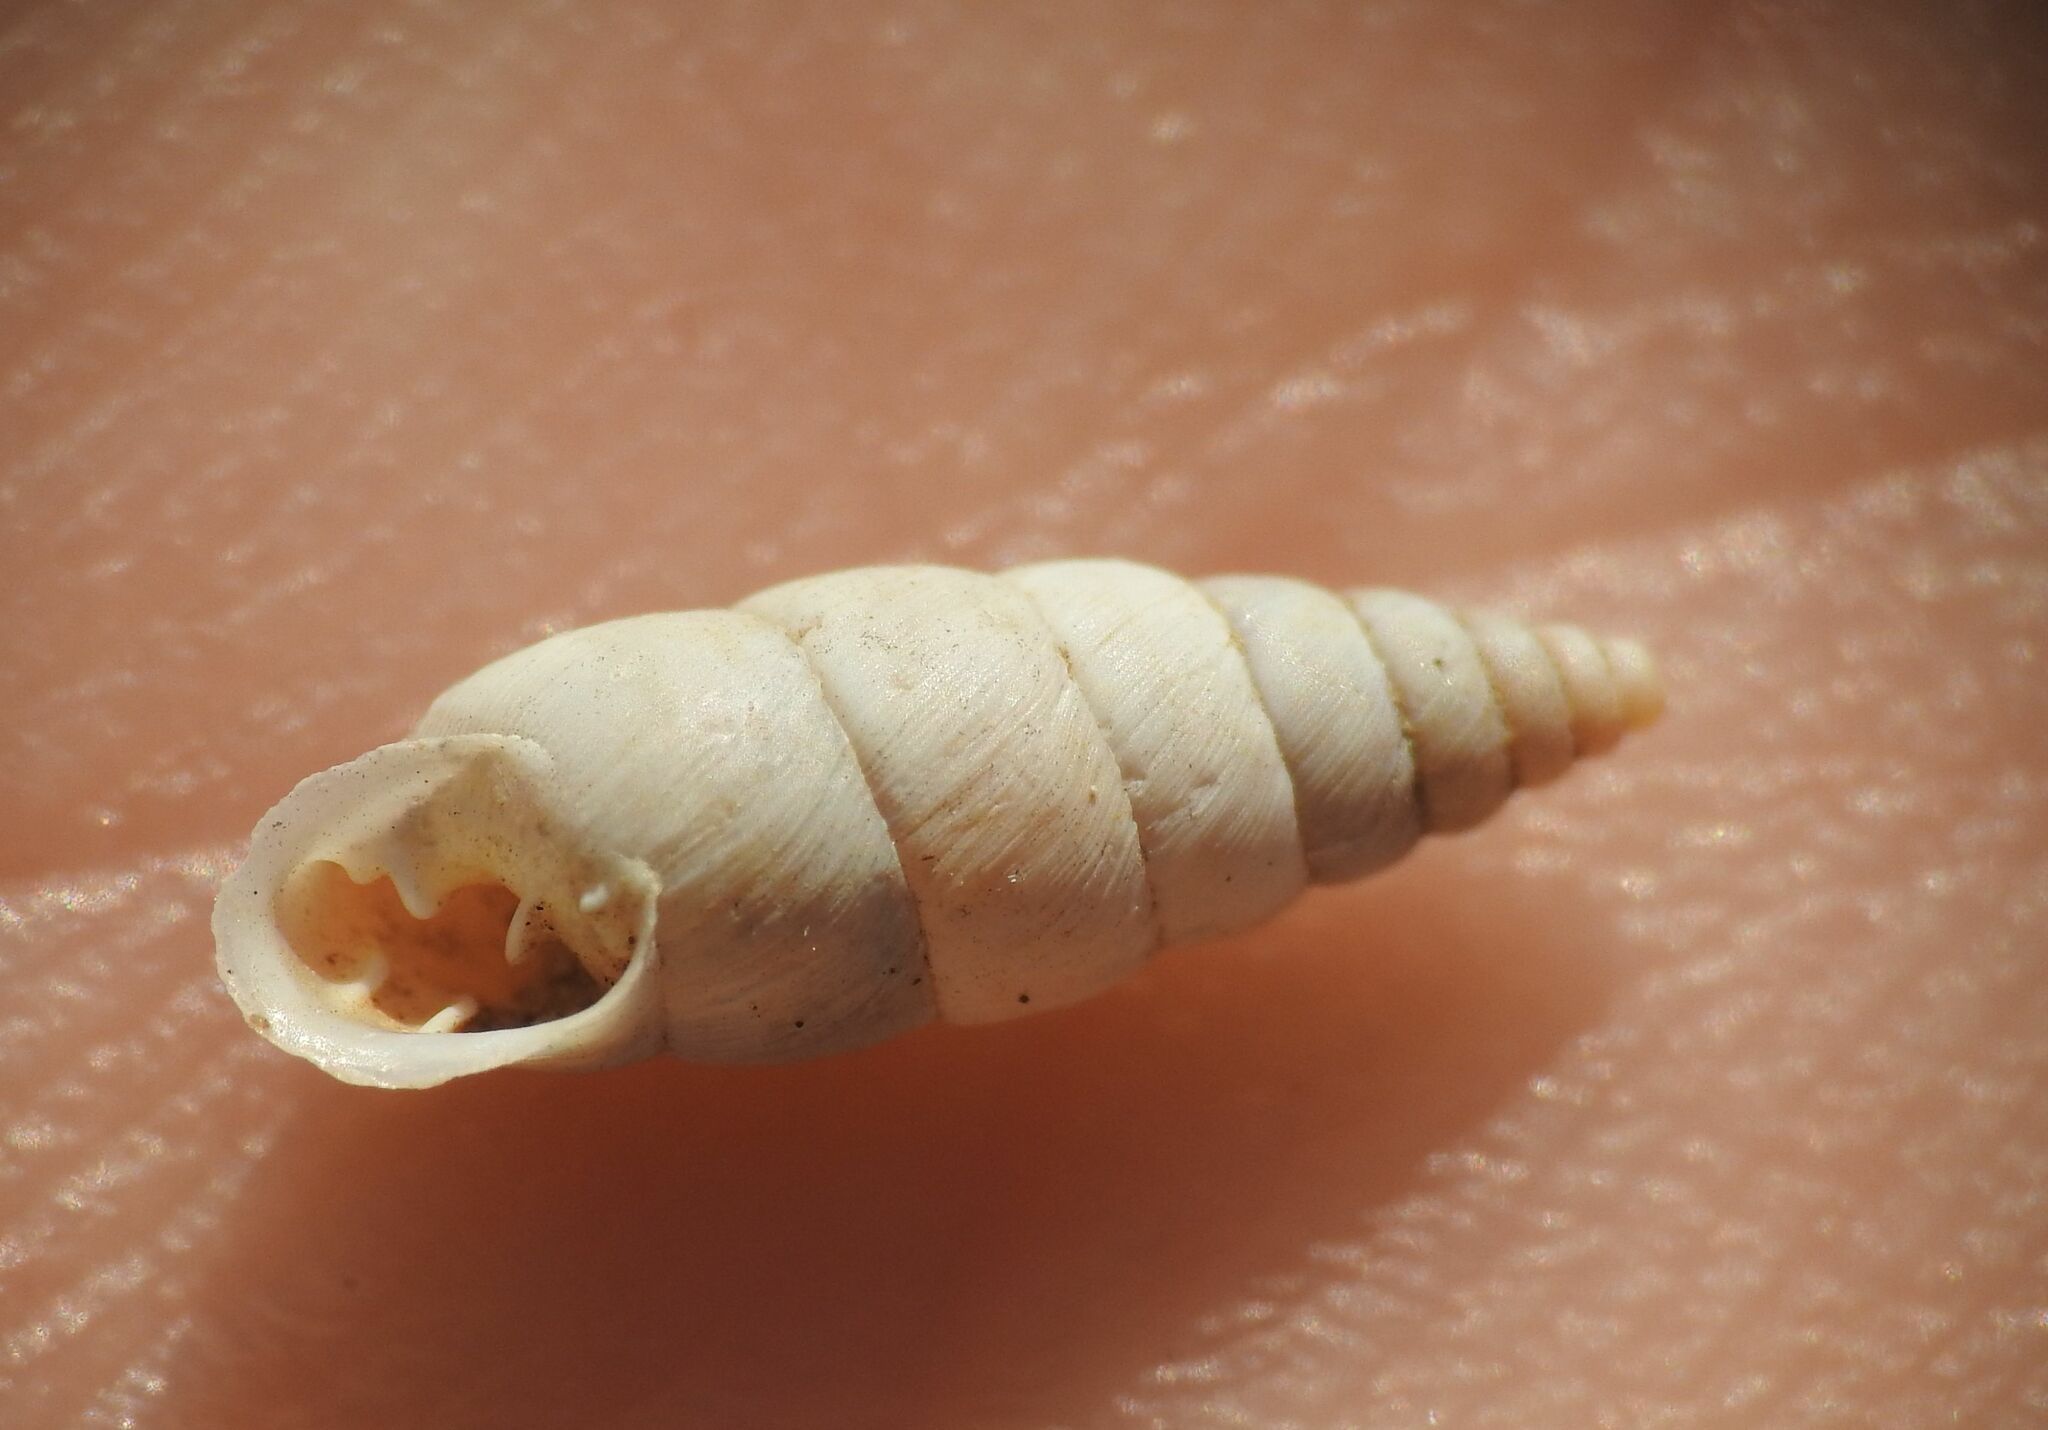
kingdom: Animalia
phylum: Mollusca
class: Gastropoda
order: Stylommatophora
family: Chondrinidae
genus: Solatopupa
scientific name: Solatopupa similis
